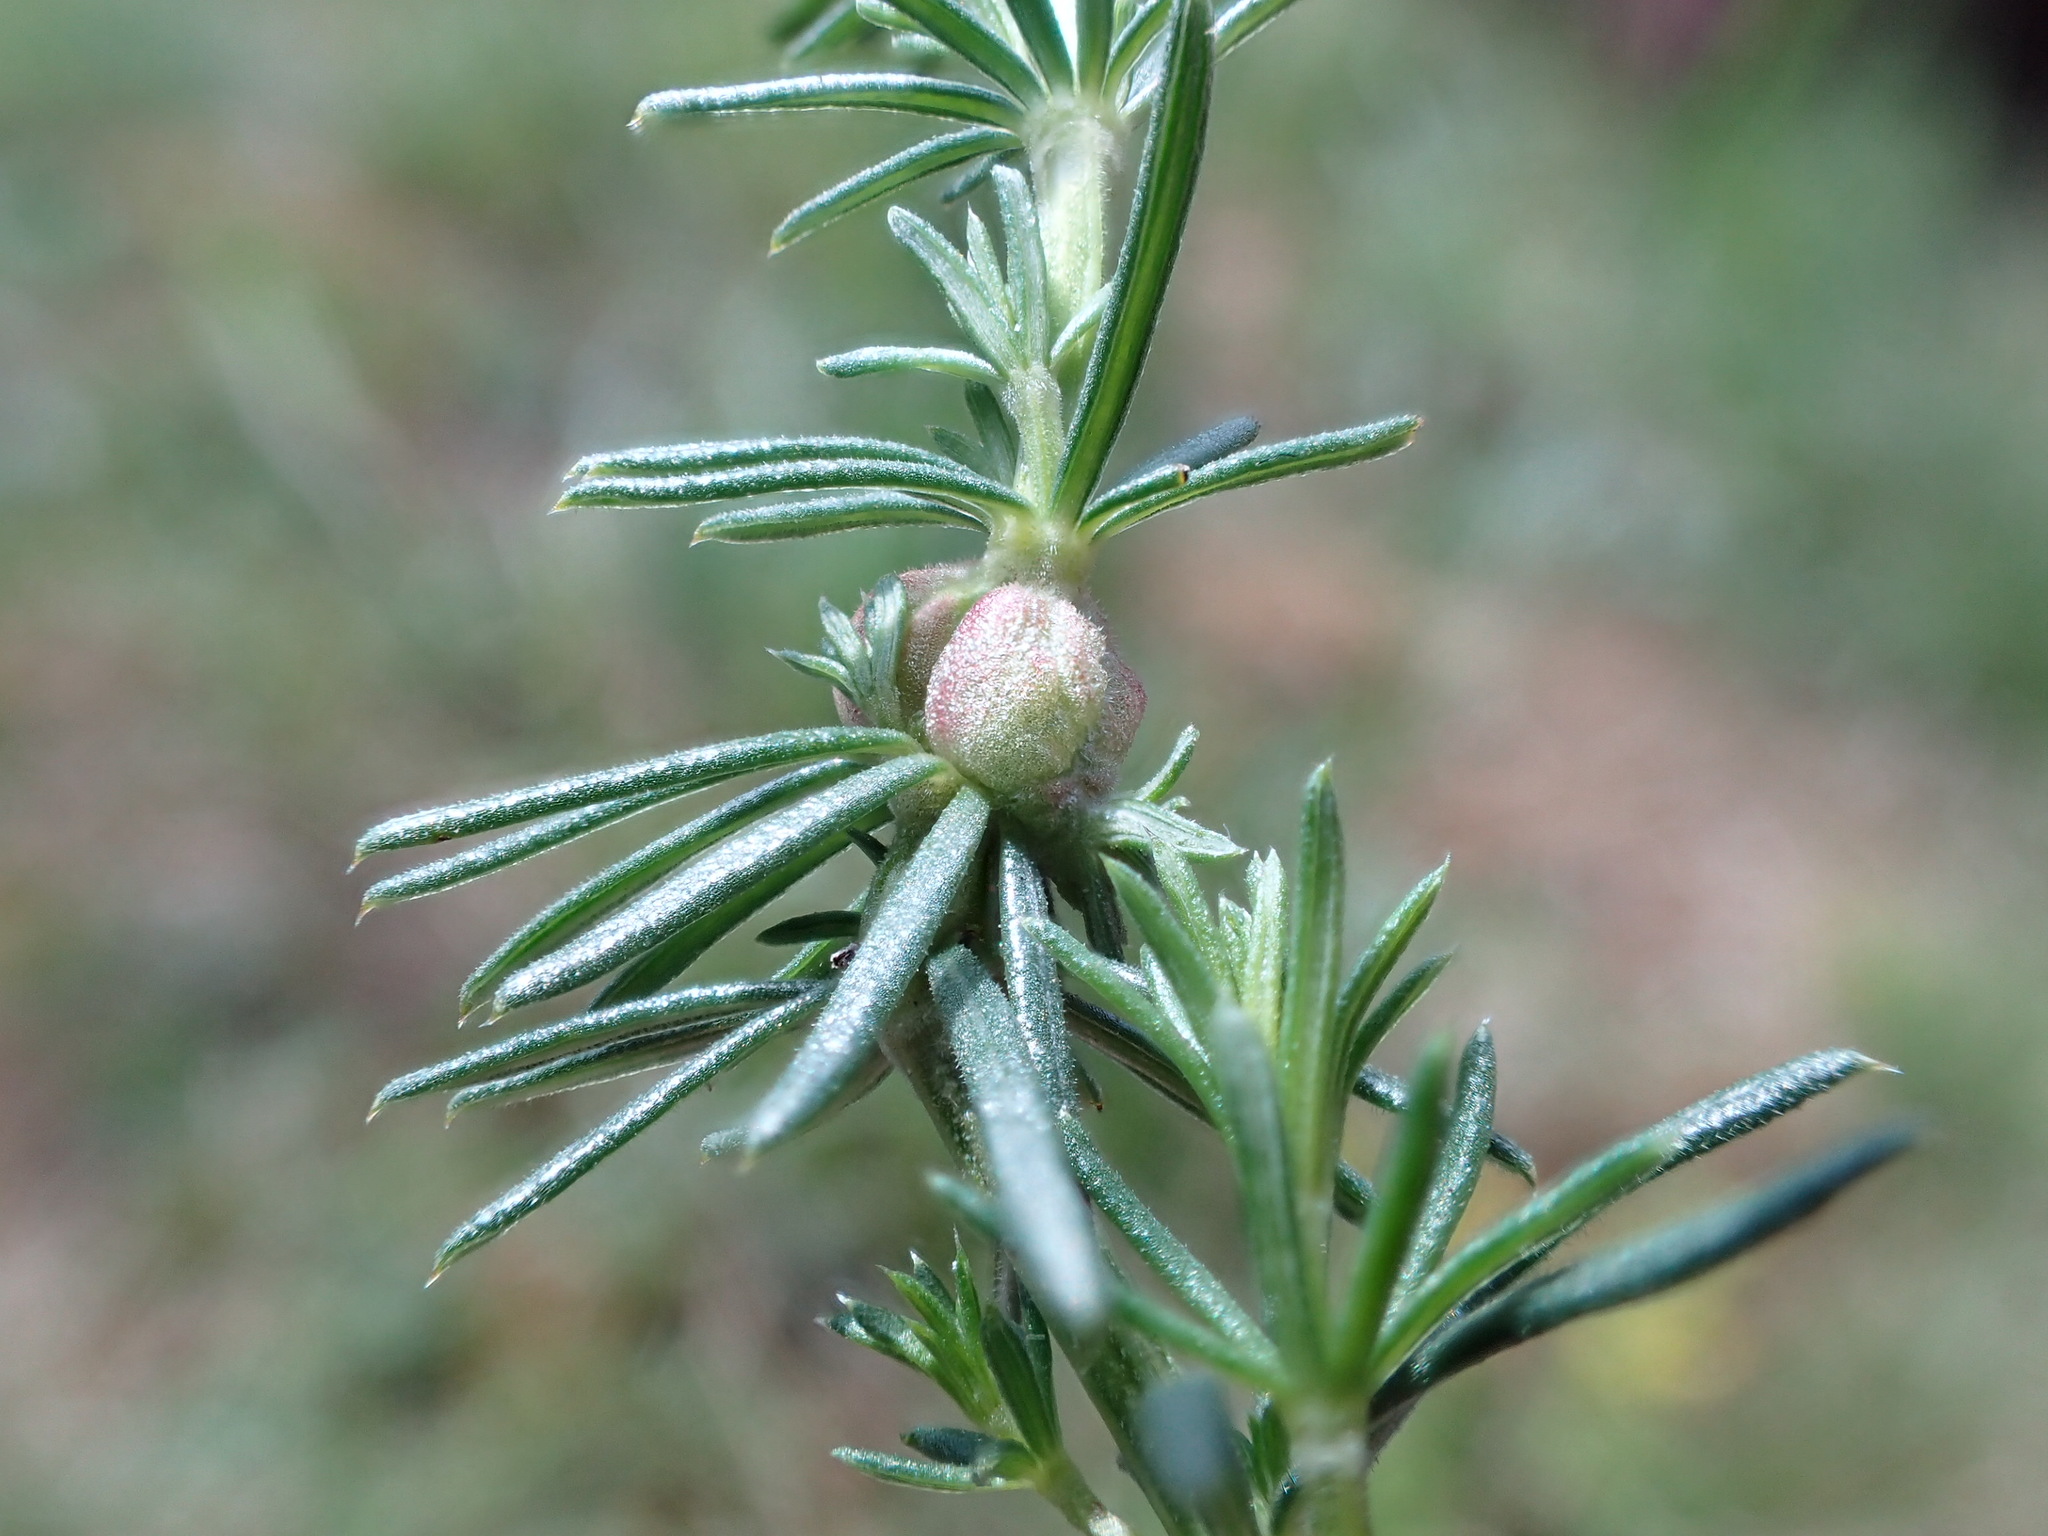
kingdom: Animalia
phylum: Arthropoda
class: Insecta
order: Diptera
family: Cecidomyiidae
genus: Geocrypta
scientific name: Geocrypta galii
